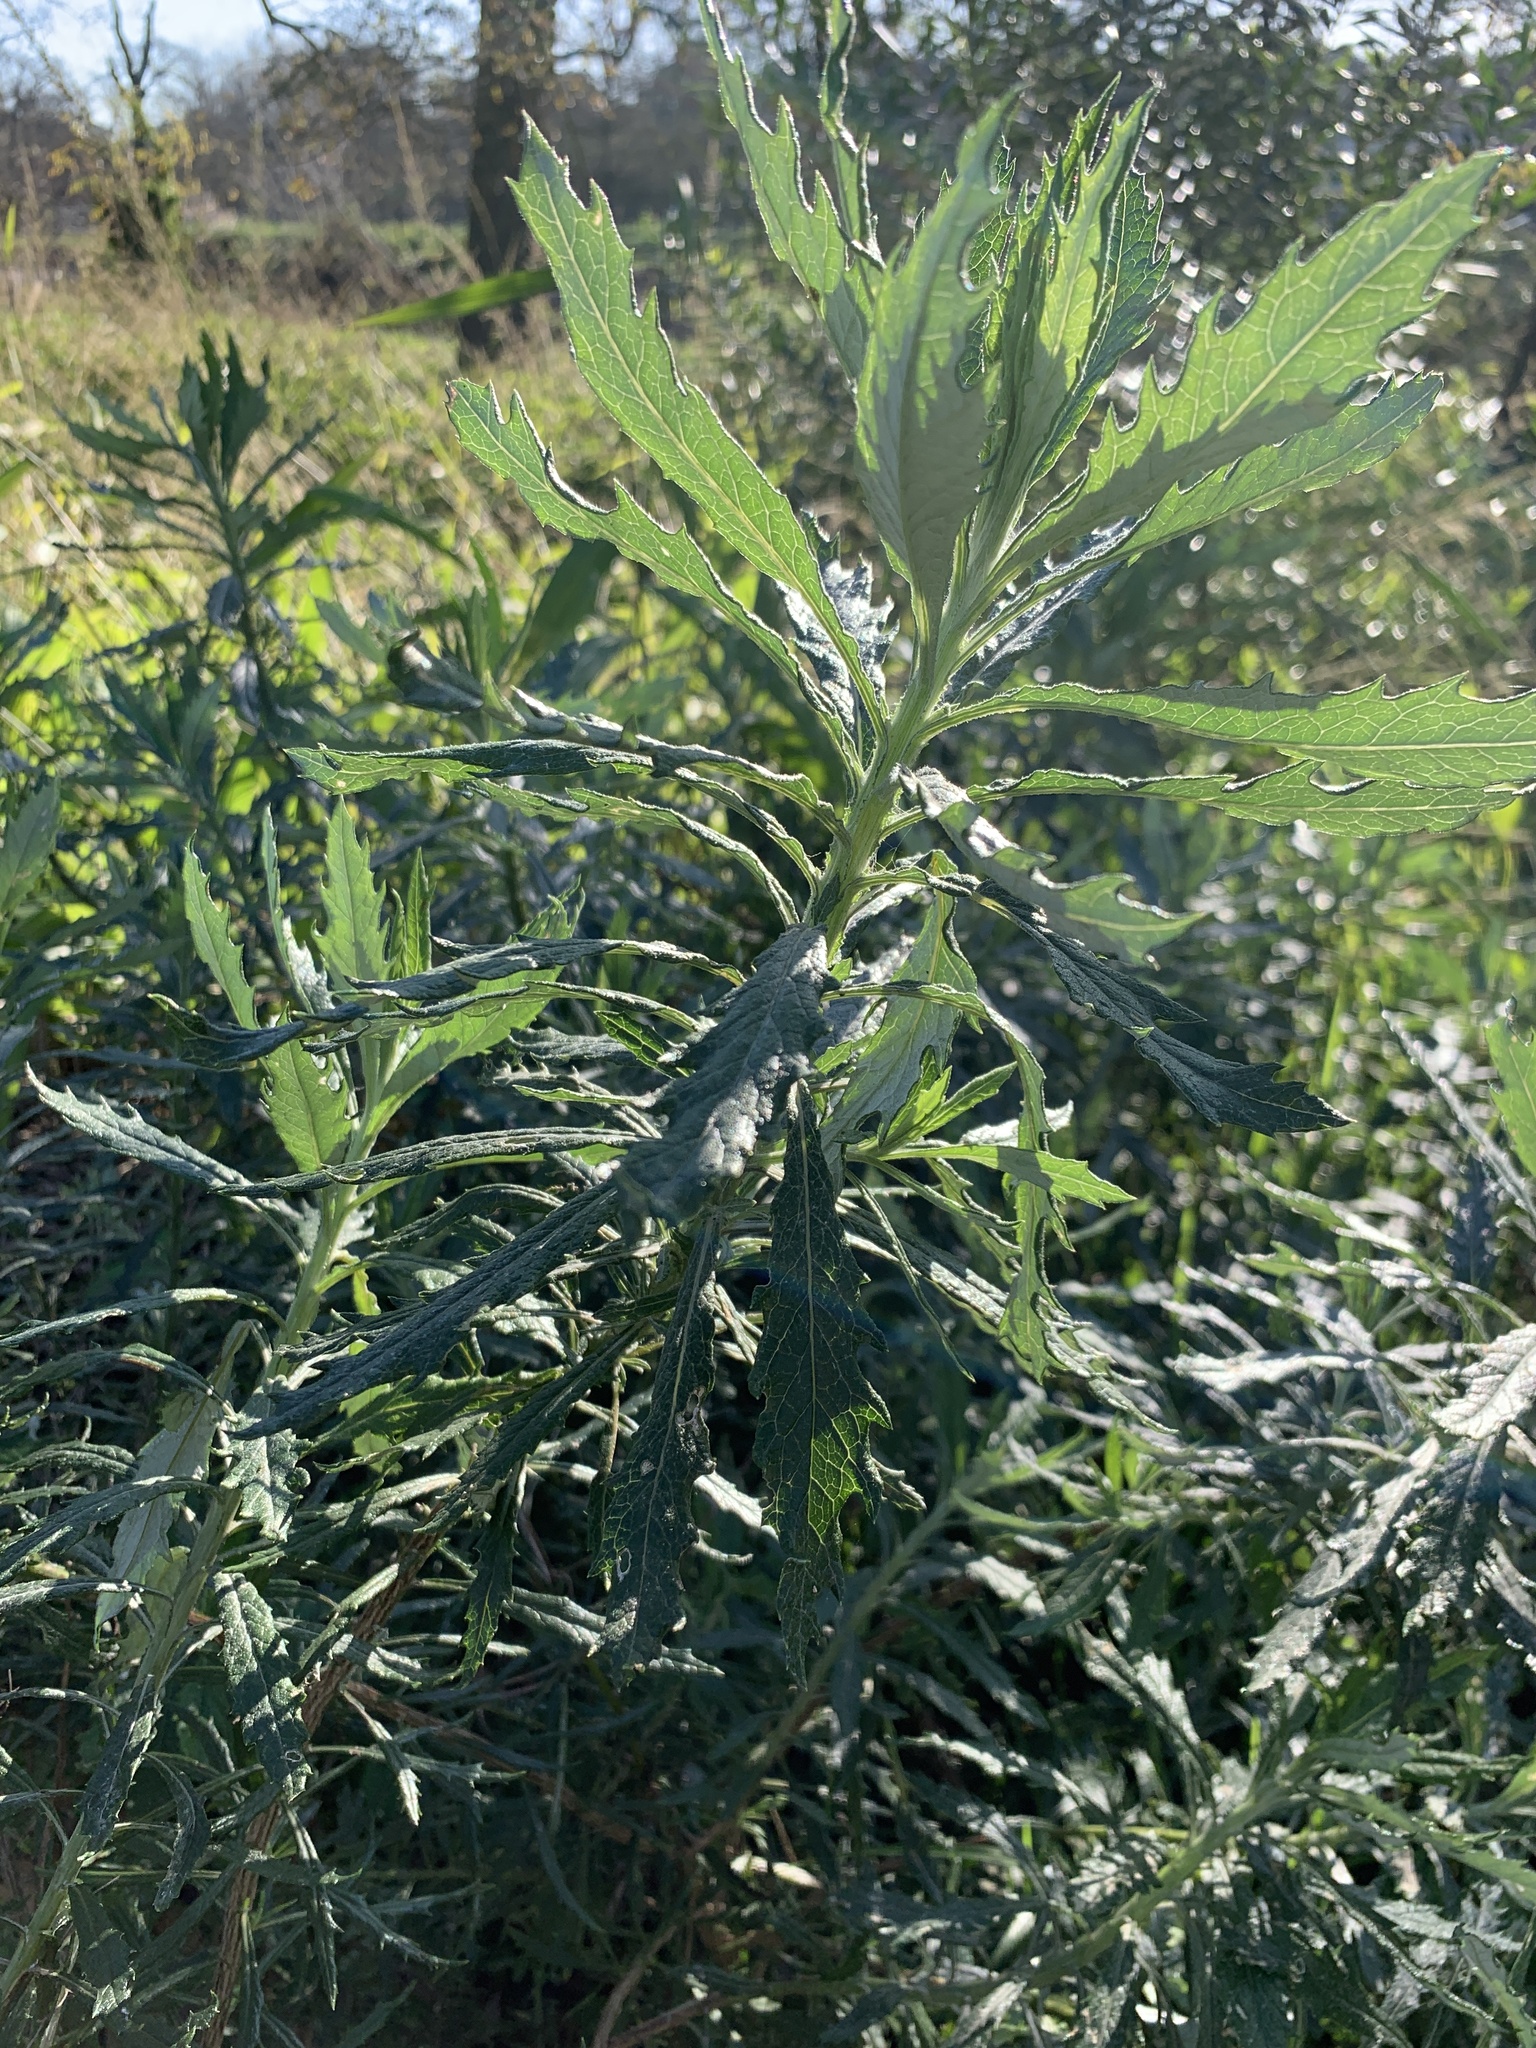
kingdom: Plantae
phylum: Tracheophyta
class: Magnoliopsida
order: Asterales
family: Asteraceae
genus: Senecio
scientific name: Senecio pterophorus
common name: Shoddy ragwort
